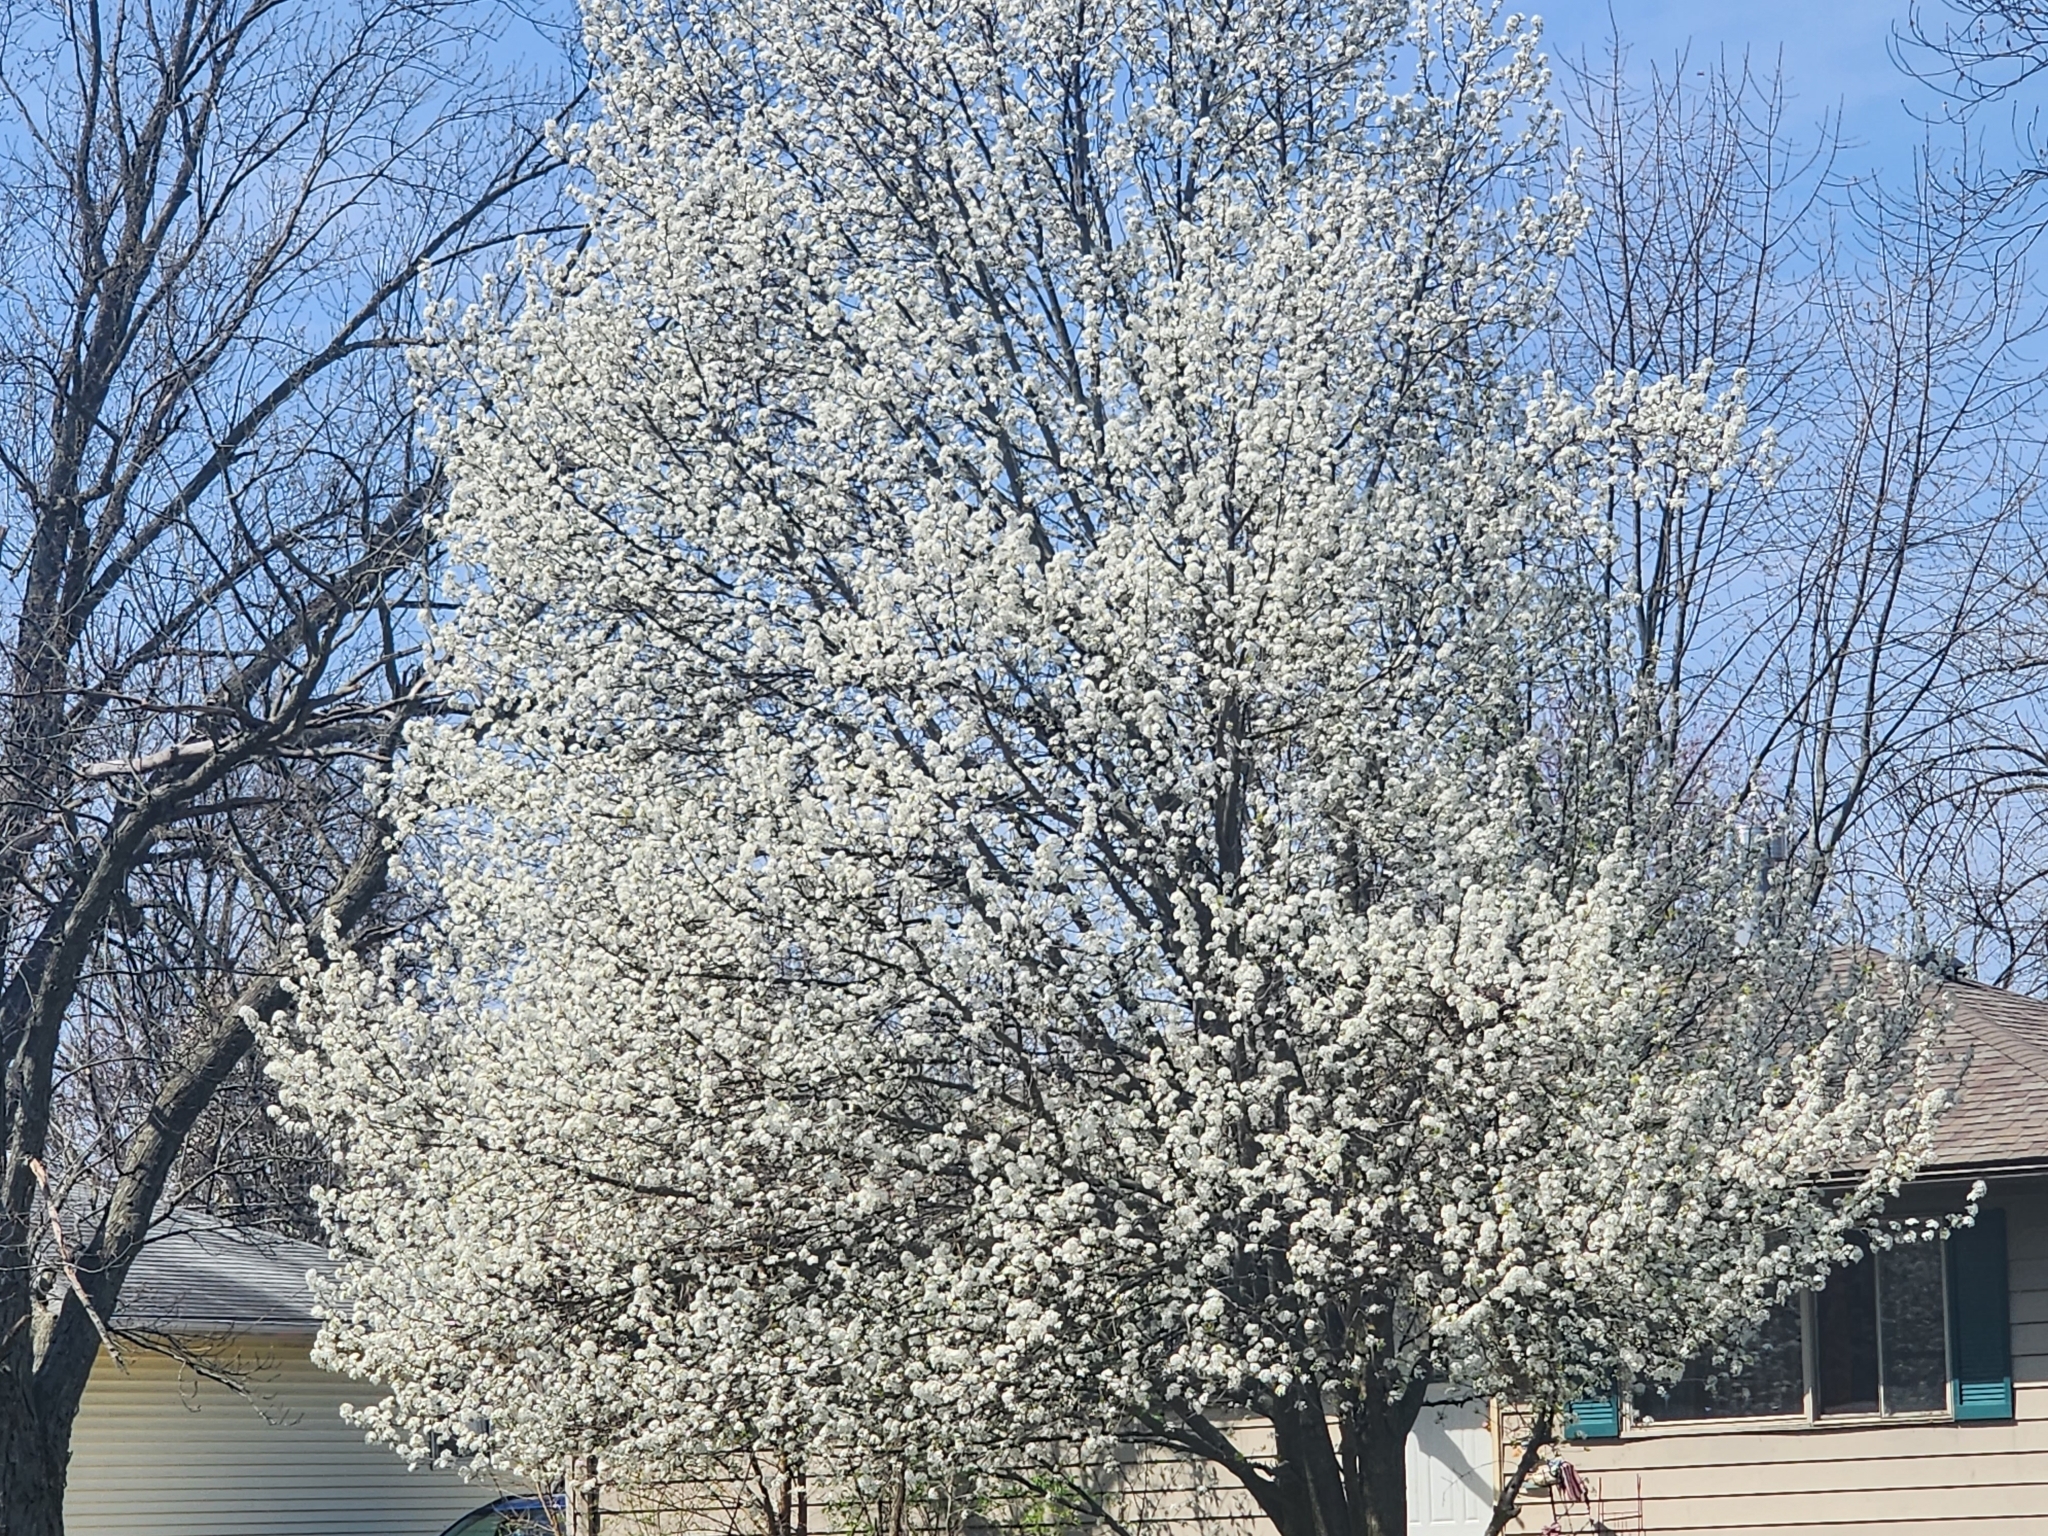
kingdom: Plantae
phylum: Tracheophyta
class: Magnoliopsida
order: Rosales
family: Rosaceae
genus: Pyrus
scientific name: Pyrus calleryana
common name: Callery pear
